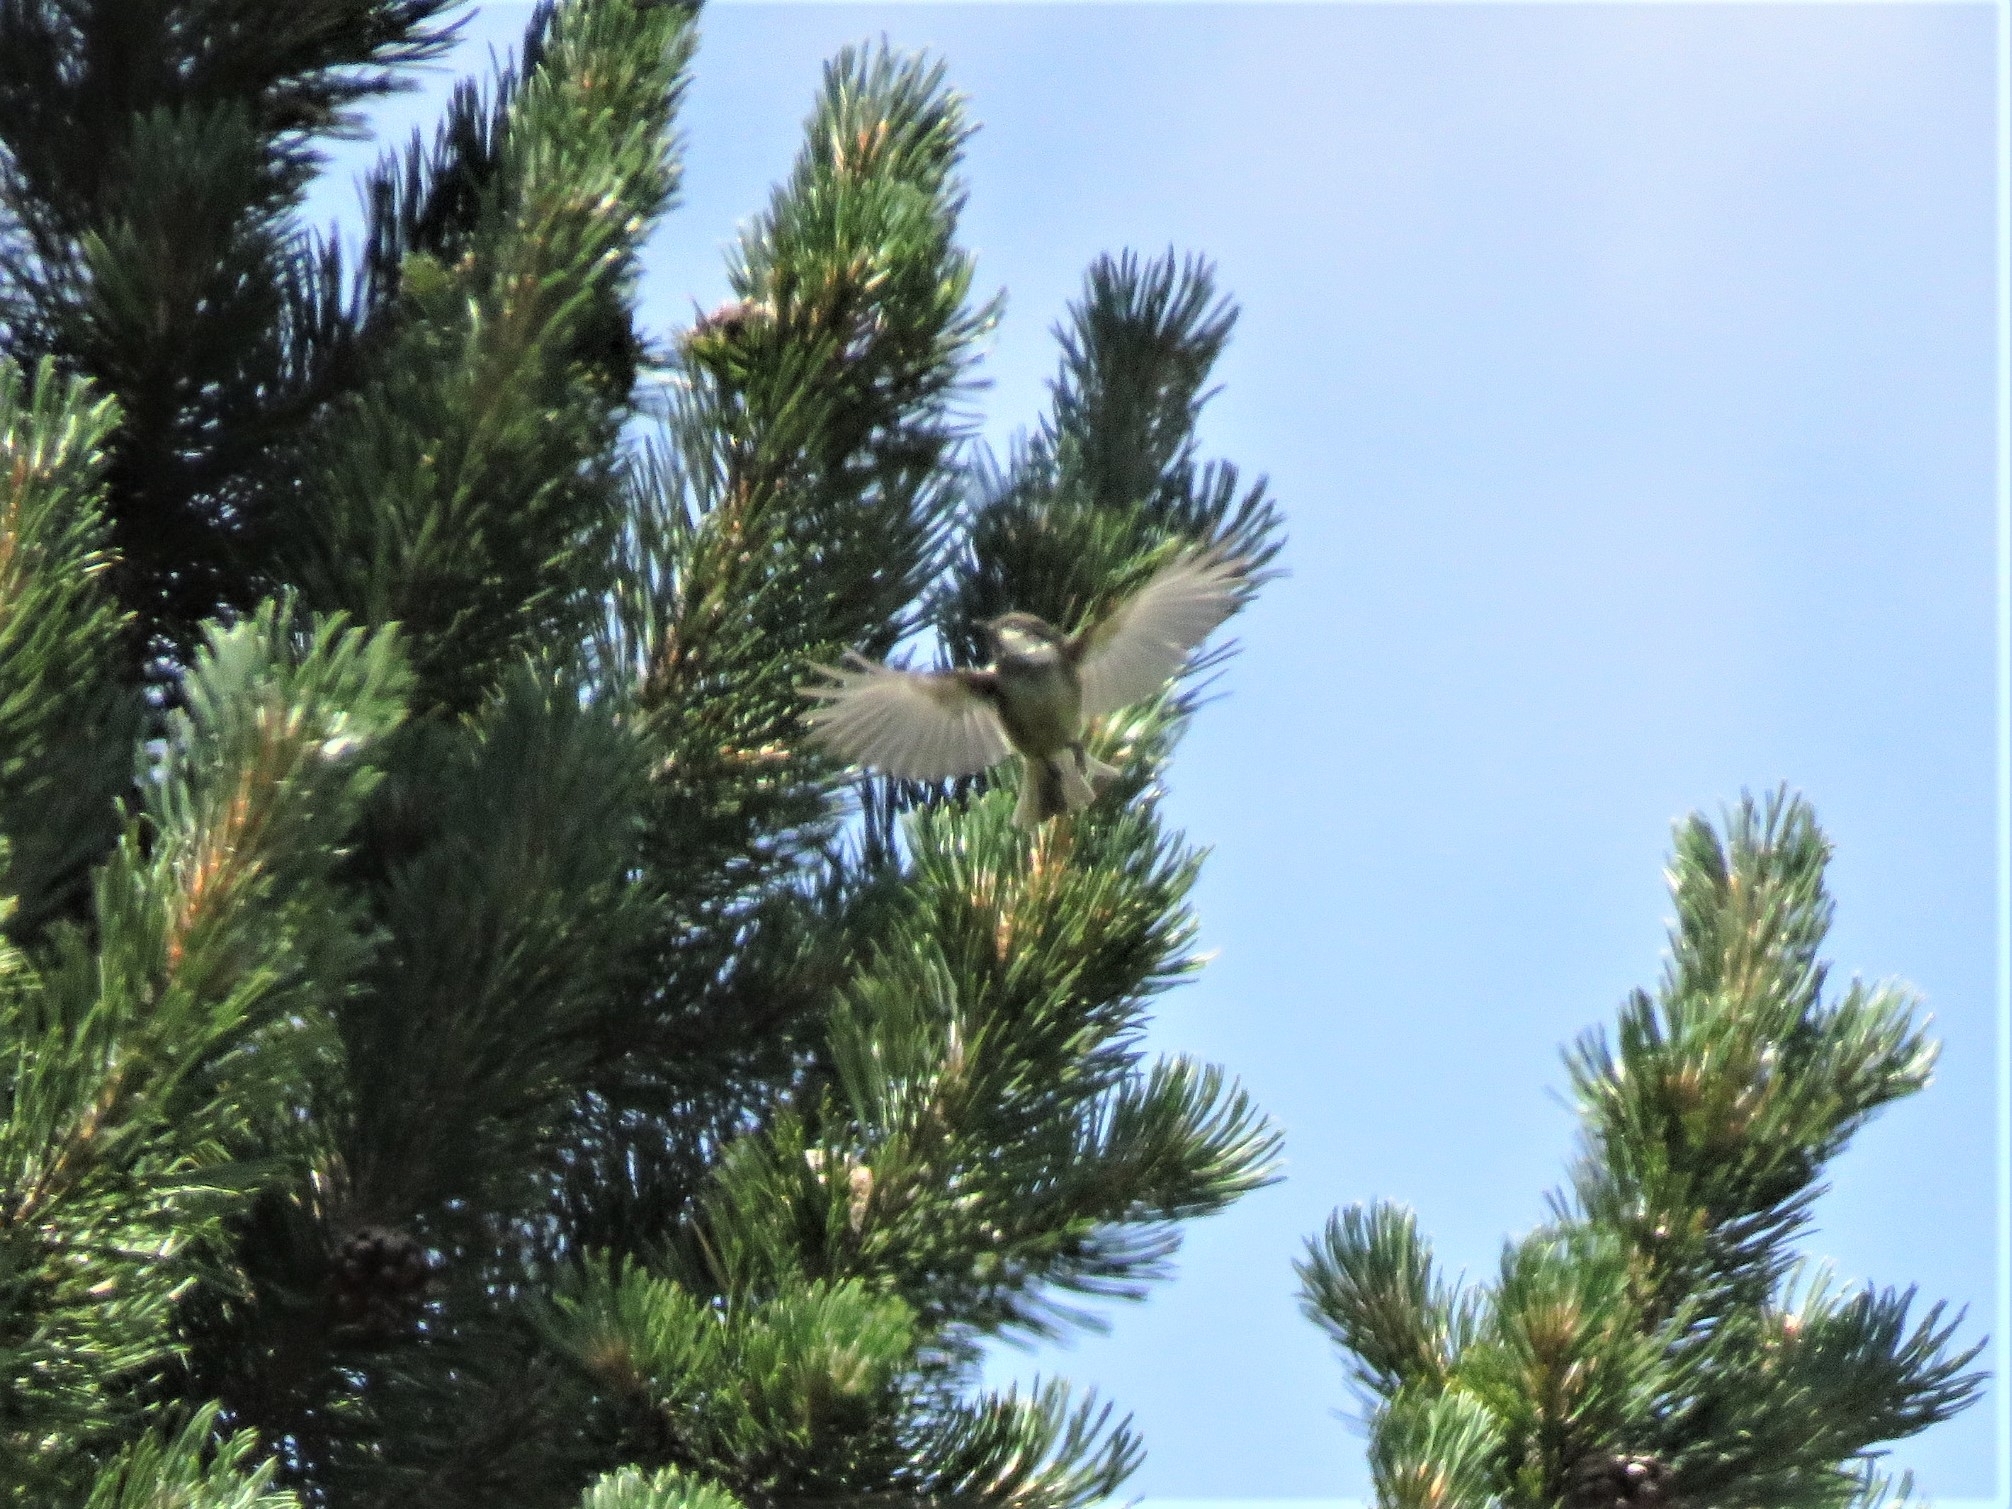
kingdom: Animalia
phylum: Chordata
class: Aves
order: Passeriformes
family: Paridae
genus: Periparus
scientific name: Periparus ater
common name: Coal tit
